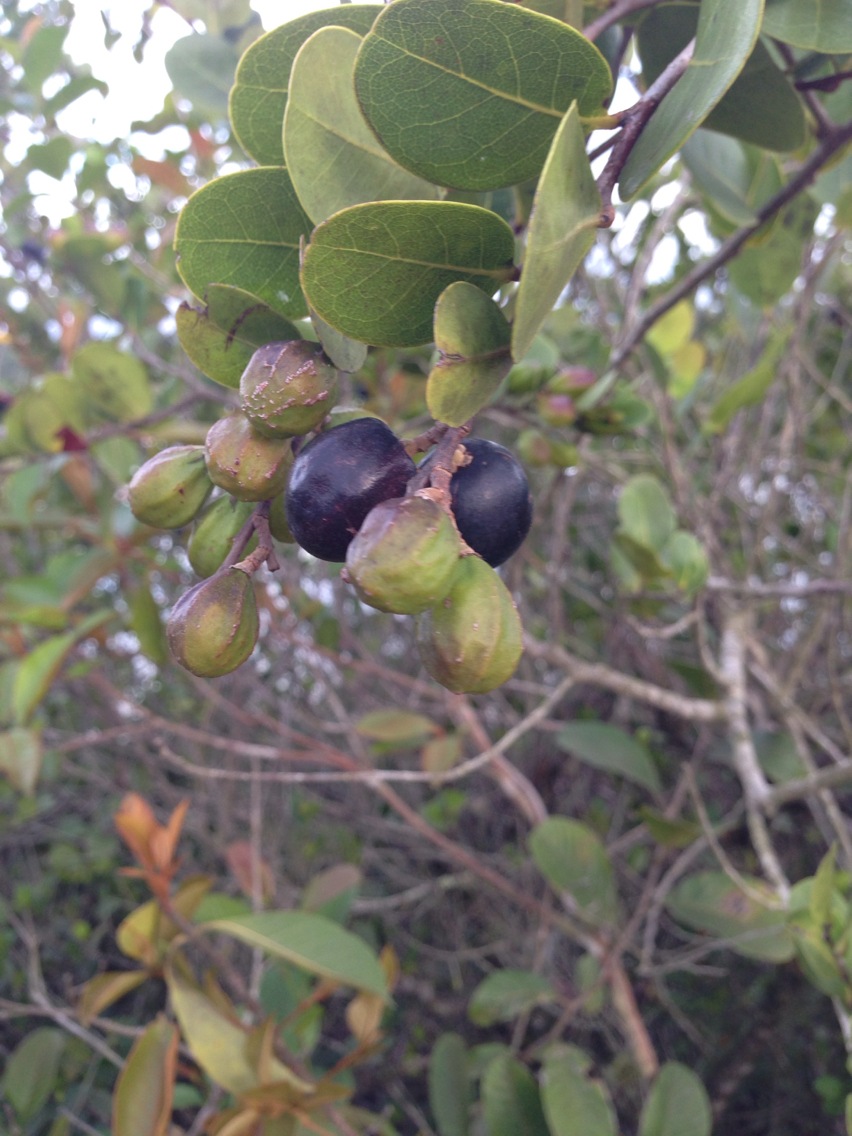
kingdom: Plantae
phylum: Tracheophyta
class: Magnoliopsida
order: Malpighiales
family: Chrysobalanaceae
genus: Chrysobalanus
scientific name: Chrysobalanus icaco
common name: Coco plum
